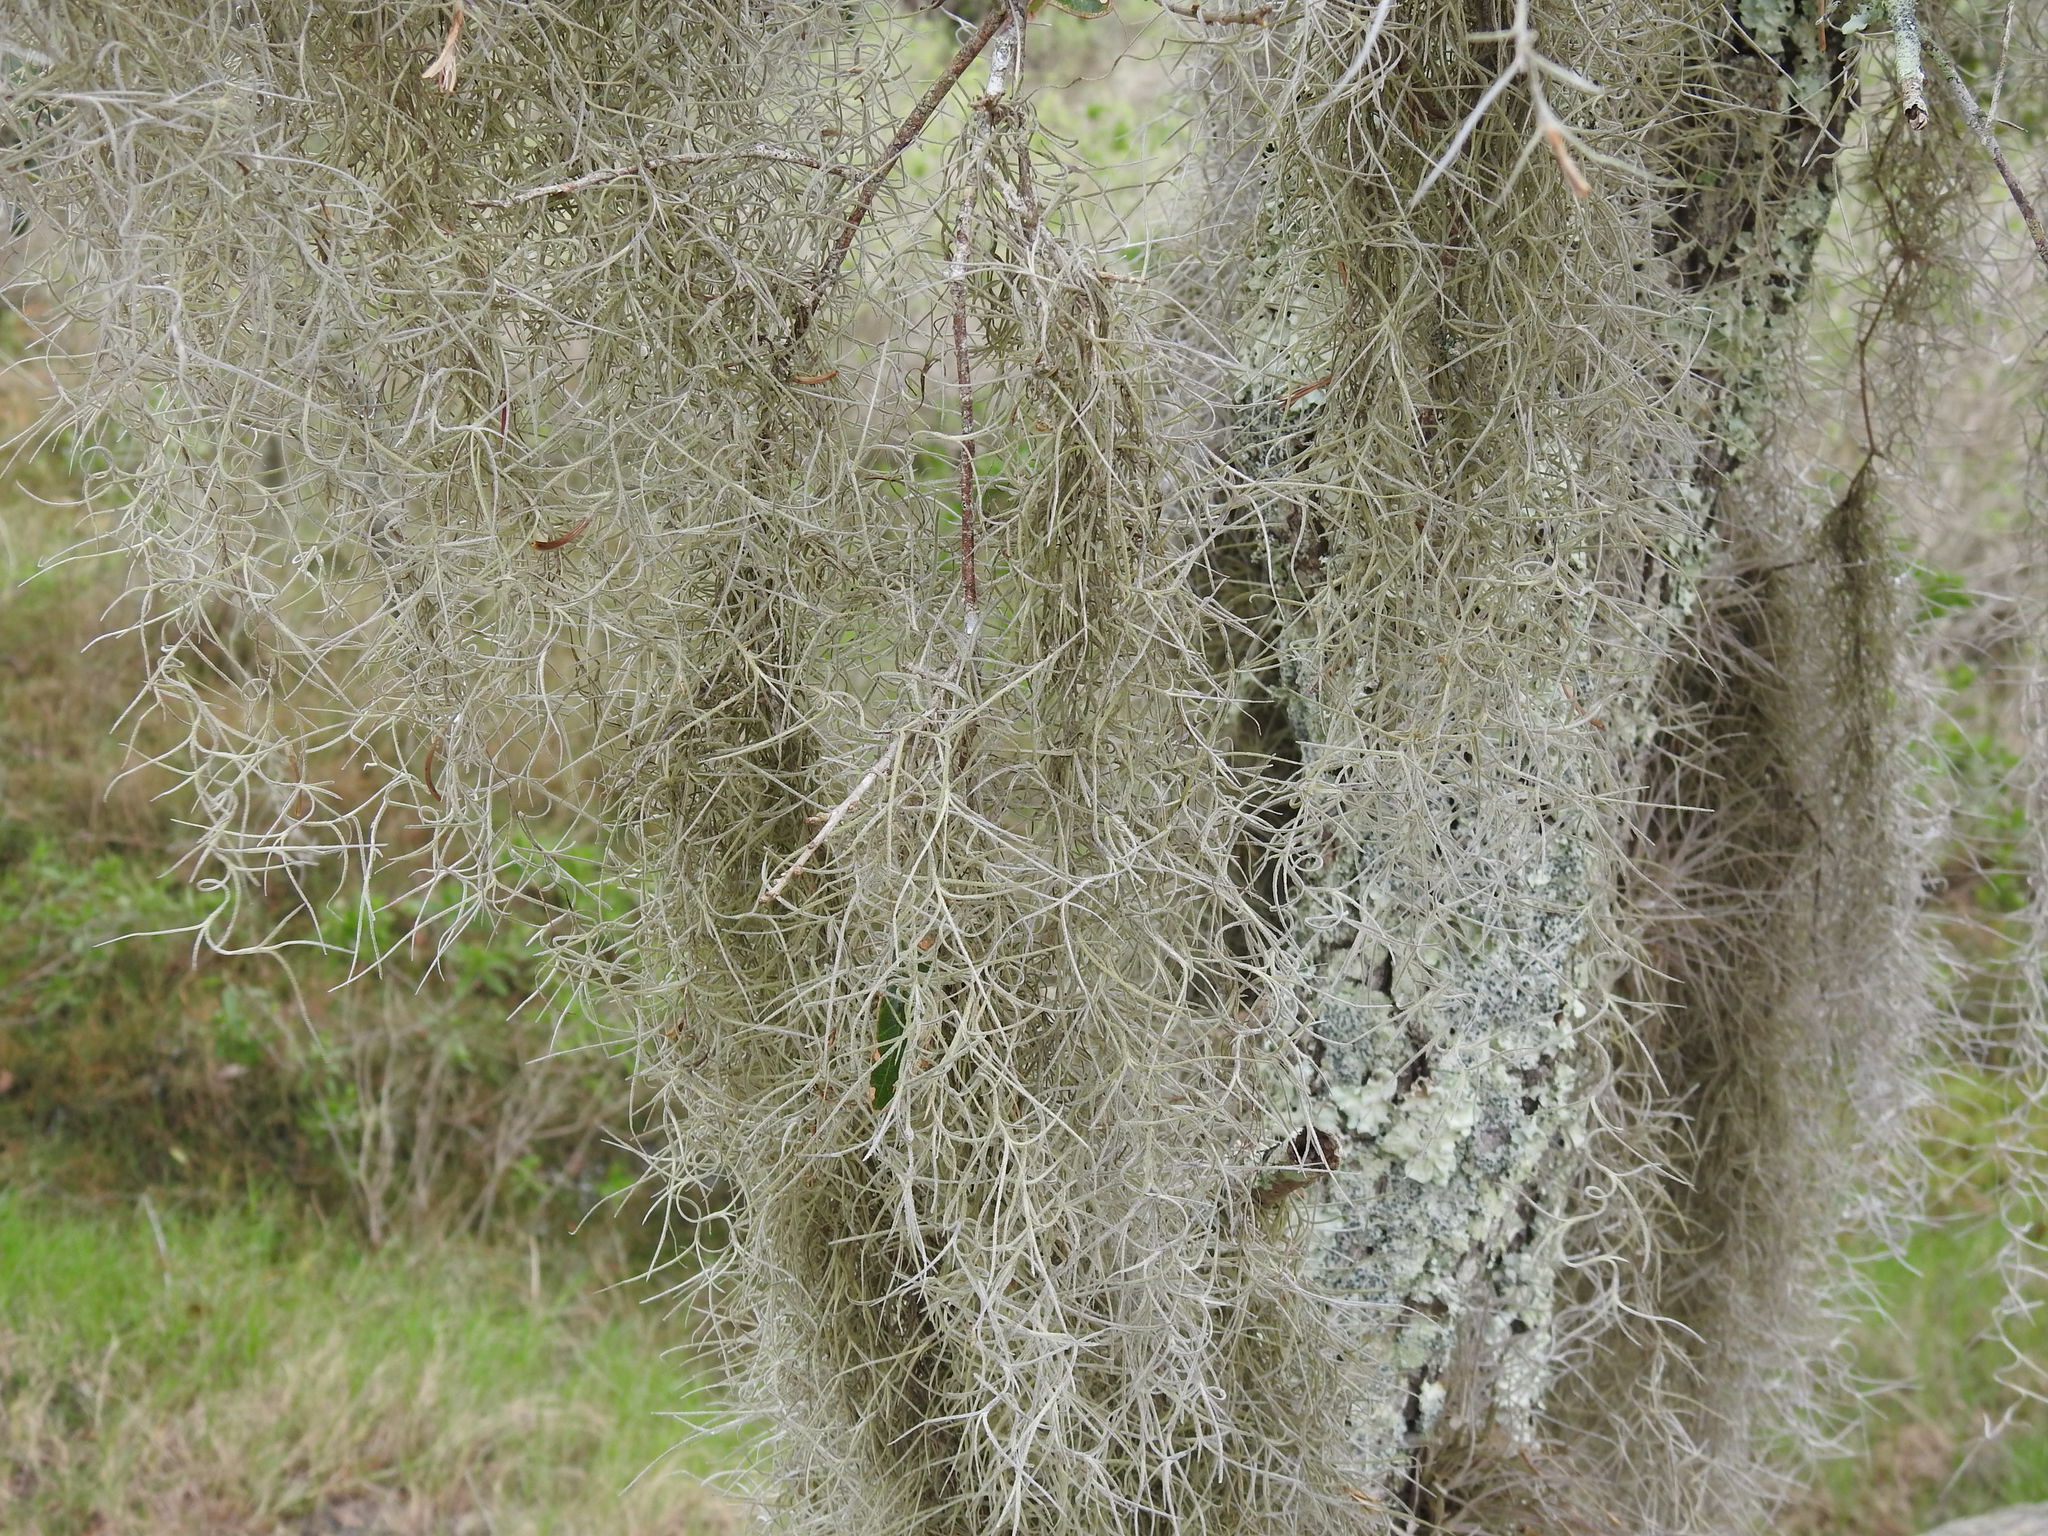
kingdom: Plantae
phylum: Tracheophyta
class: Liliopsida
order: Poales
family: Bromeliaceae
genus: Tillandsia
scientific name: Tillandsia usneoides
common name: Spanish moss
